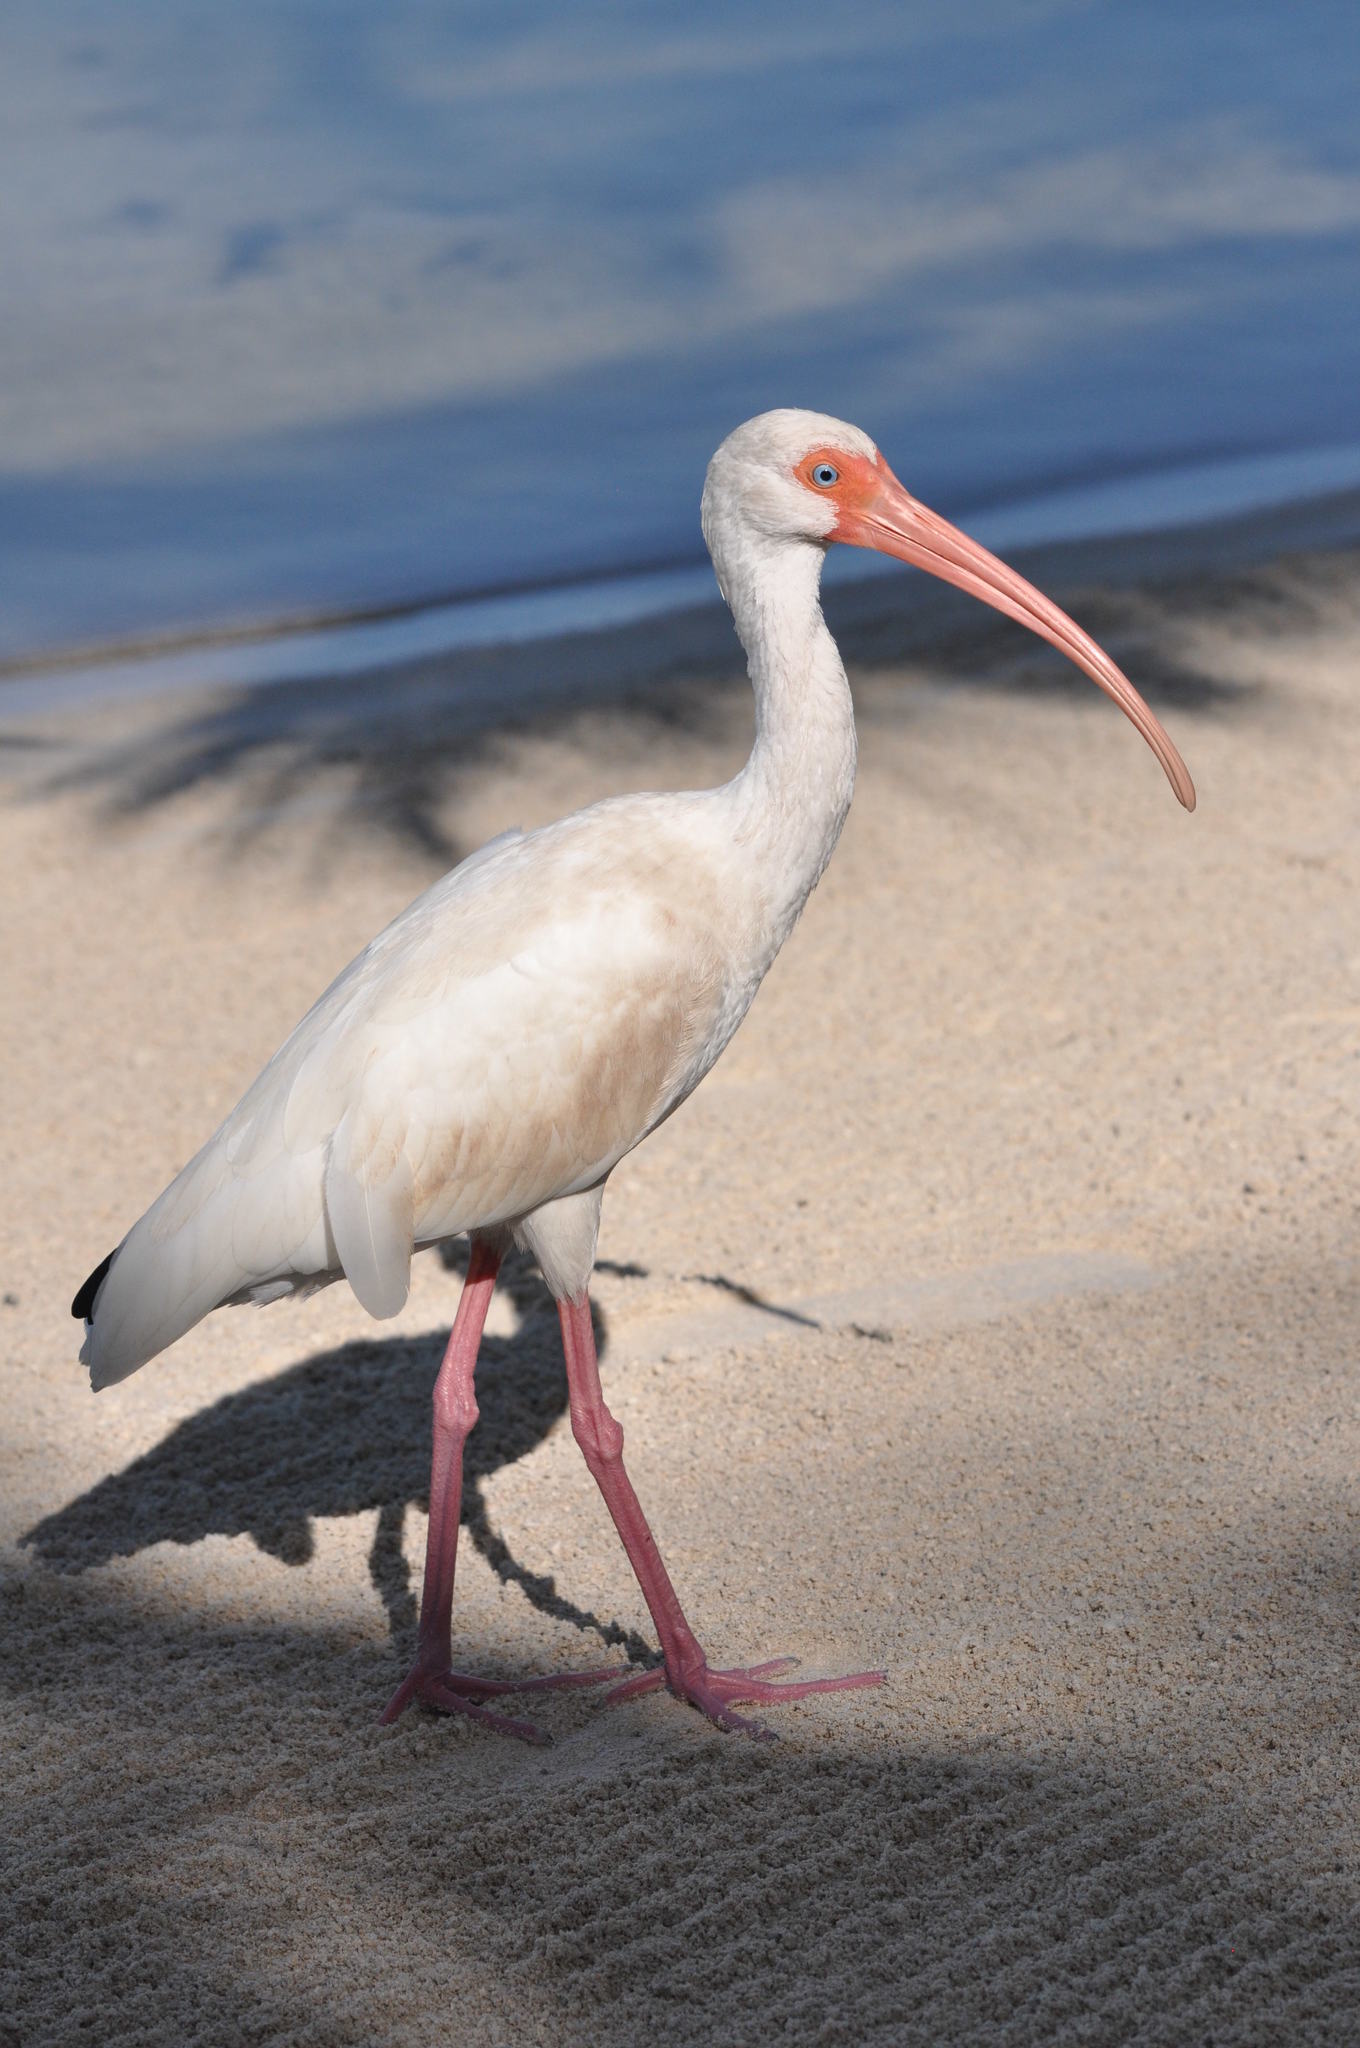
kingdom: Animalia
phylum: Chordata
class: Aves
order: Pelecaniformes
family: Threskiornithidae
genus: Eudocimus
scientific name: Eudocimus albus
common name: White ibis
